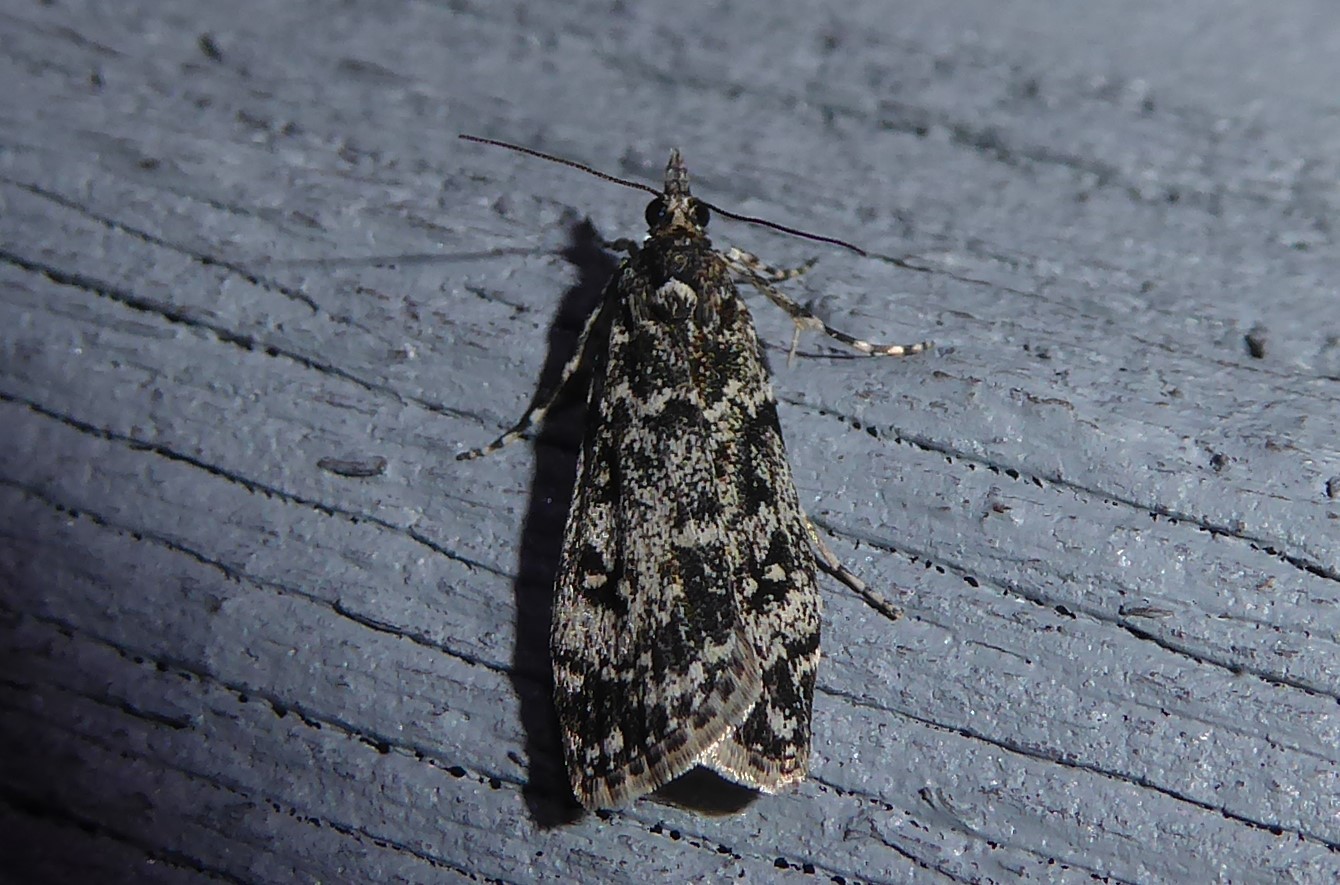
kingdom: Animalia
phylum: Arthropoda
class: Insecta
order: Lepidoptera
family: Crambidae
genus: Eudonia
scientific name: Eudonia philerga
